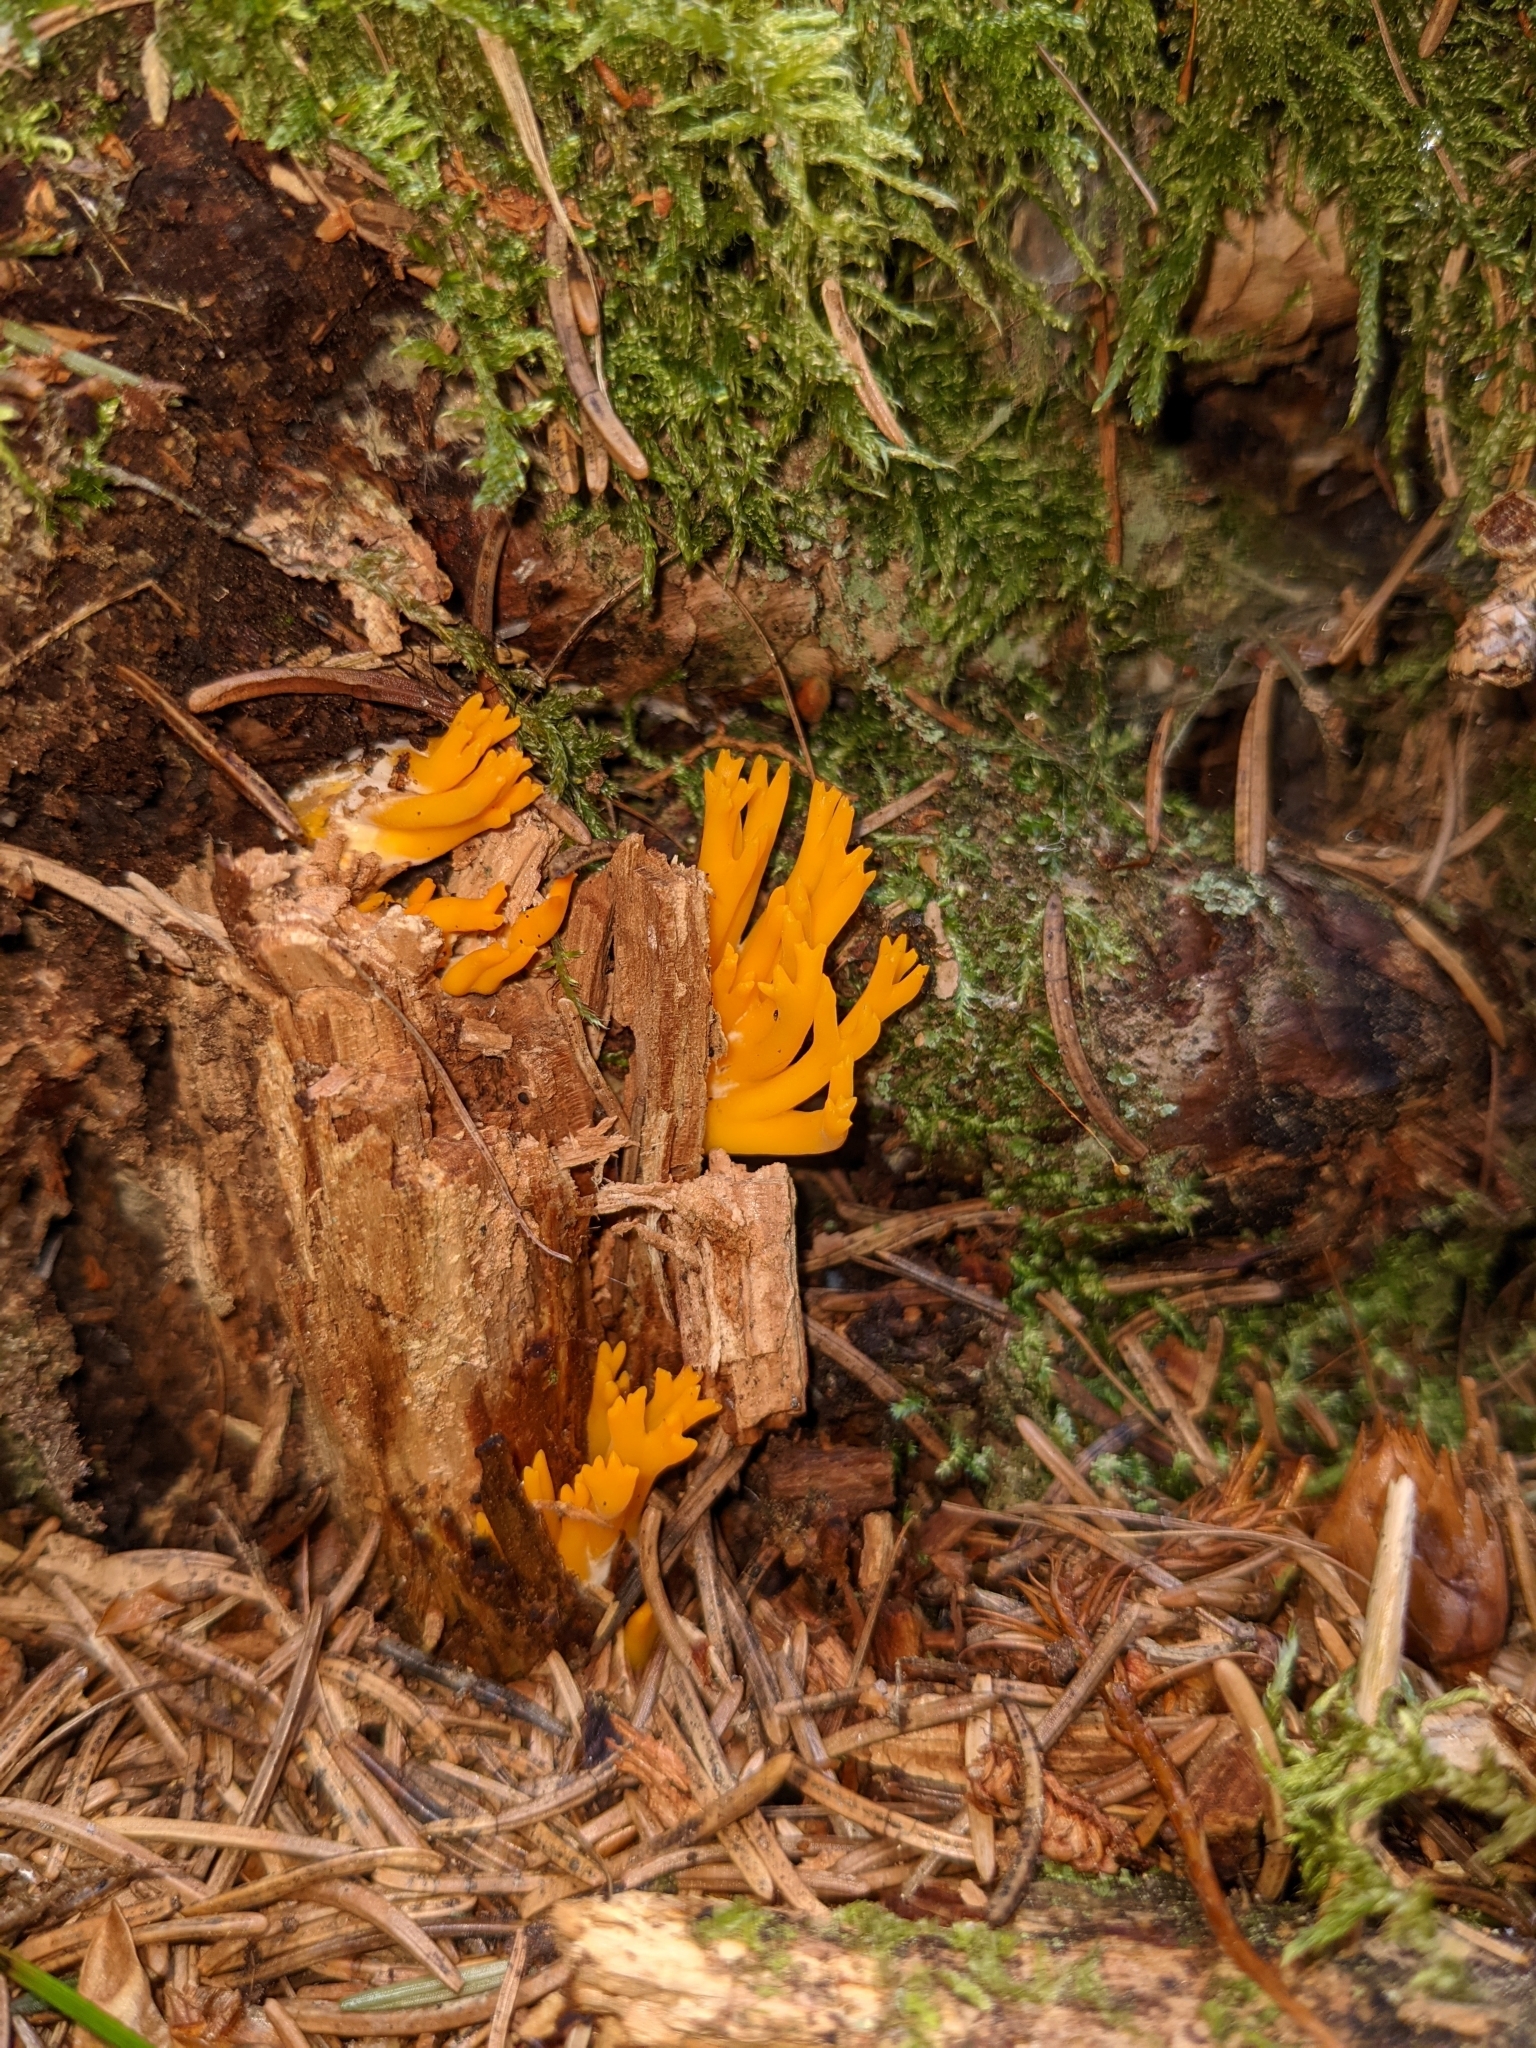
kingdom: Fungi
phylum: Basidiomycota
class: Dacrymycetes
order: Dacrymycetales
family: Dacrymycetaceae
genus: Calocera
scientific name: Calocera viscosa
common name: Yellow stagshorn
